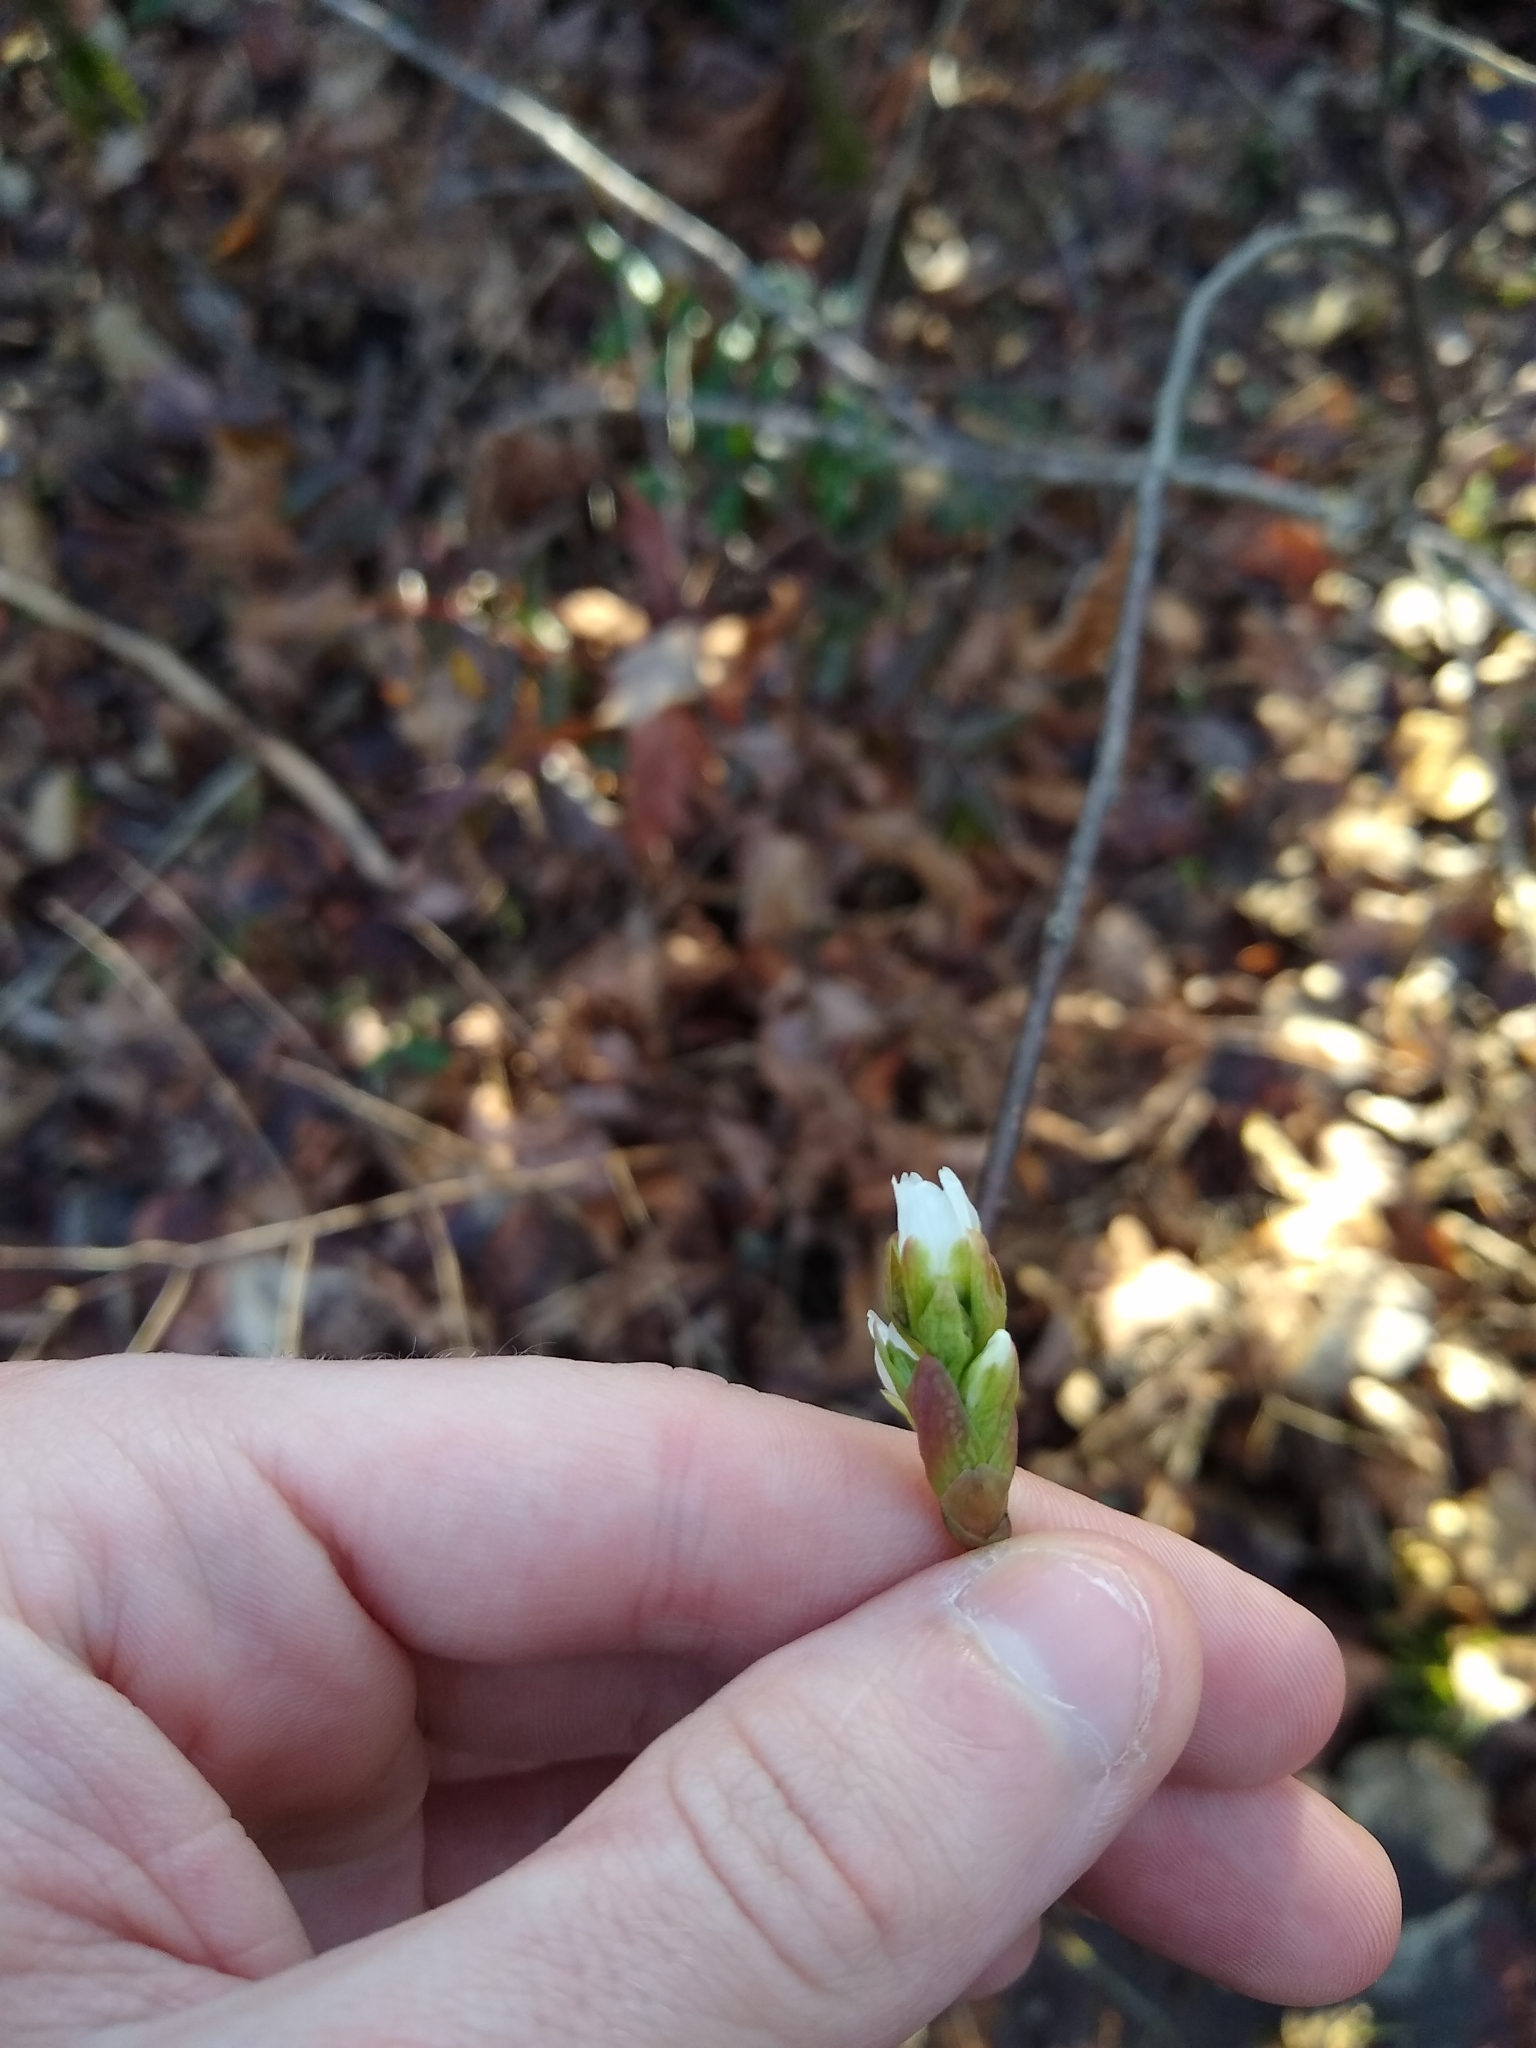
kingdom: Plantae
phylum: Tracheophyta
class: Magnoliopsida
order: Rosales
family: Rosaceae
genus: Oemleria
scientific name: Oemleria cerasiformis
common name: Osoberry
